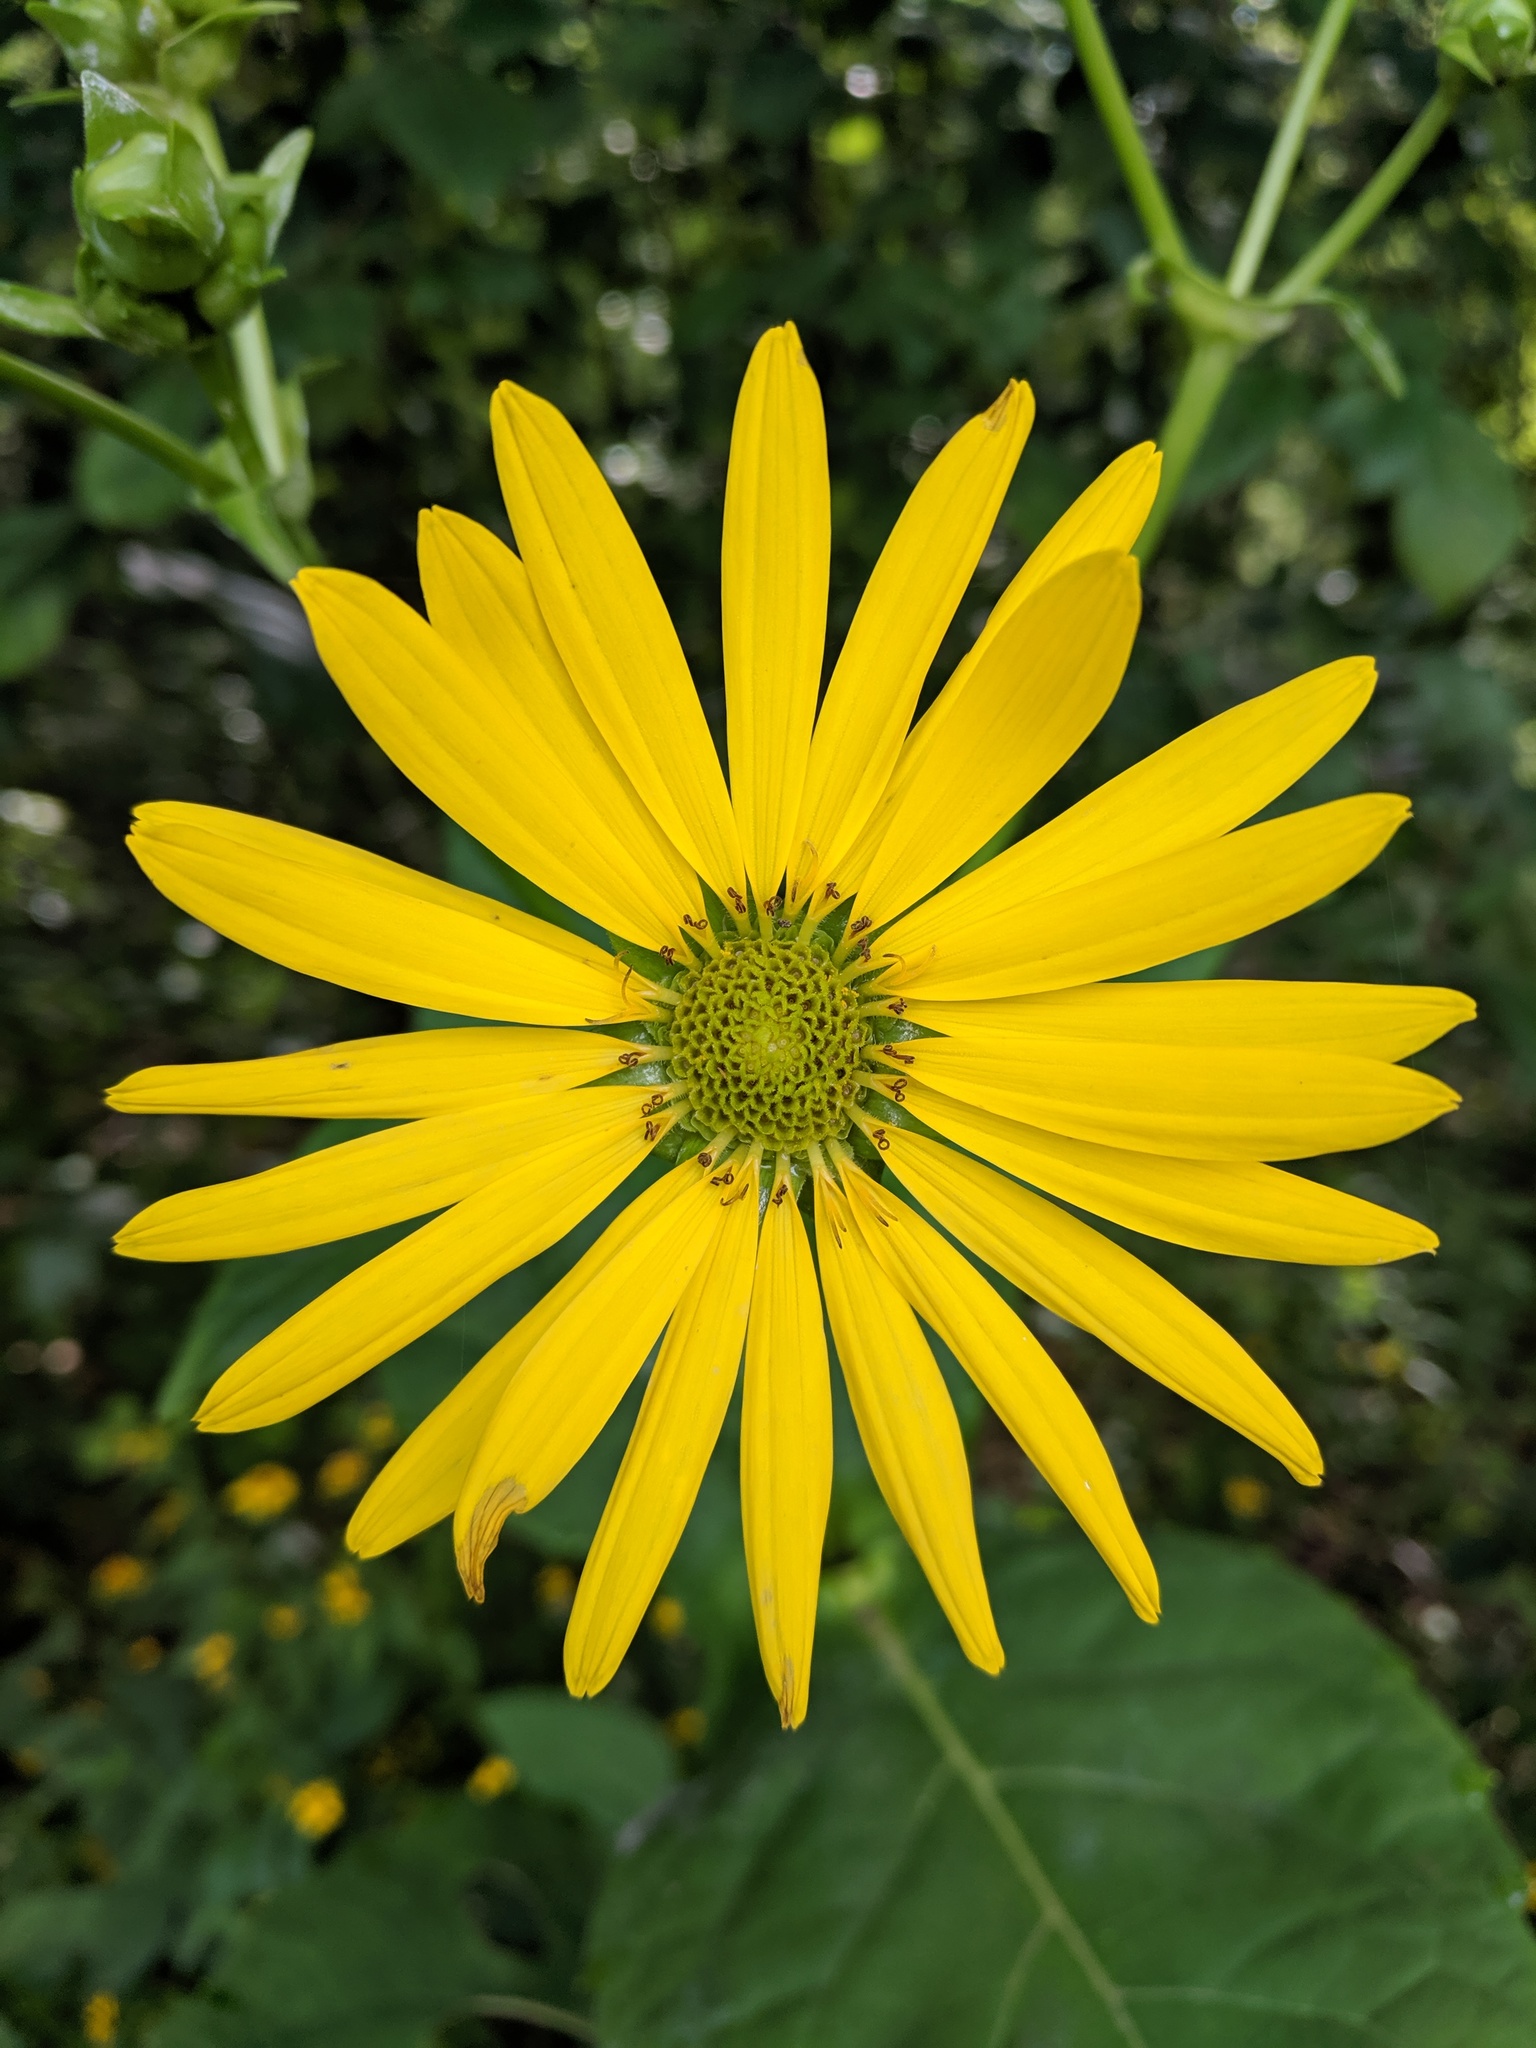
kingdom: Plantae
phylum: Tracheophyta
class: Magnoliopsida
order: Asterales
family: Asteraceae
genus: Silphium
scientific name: Silphium perfoliatum
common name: Cup-plant
